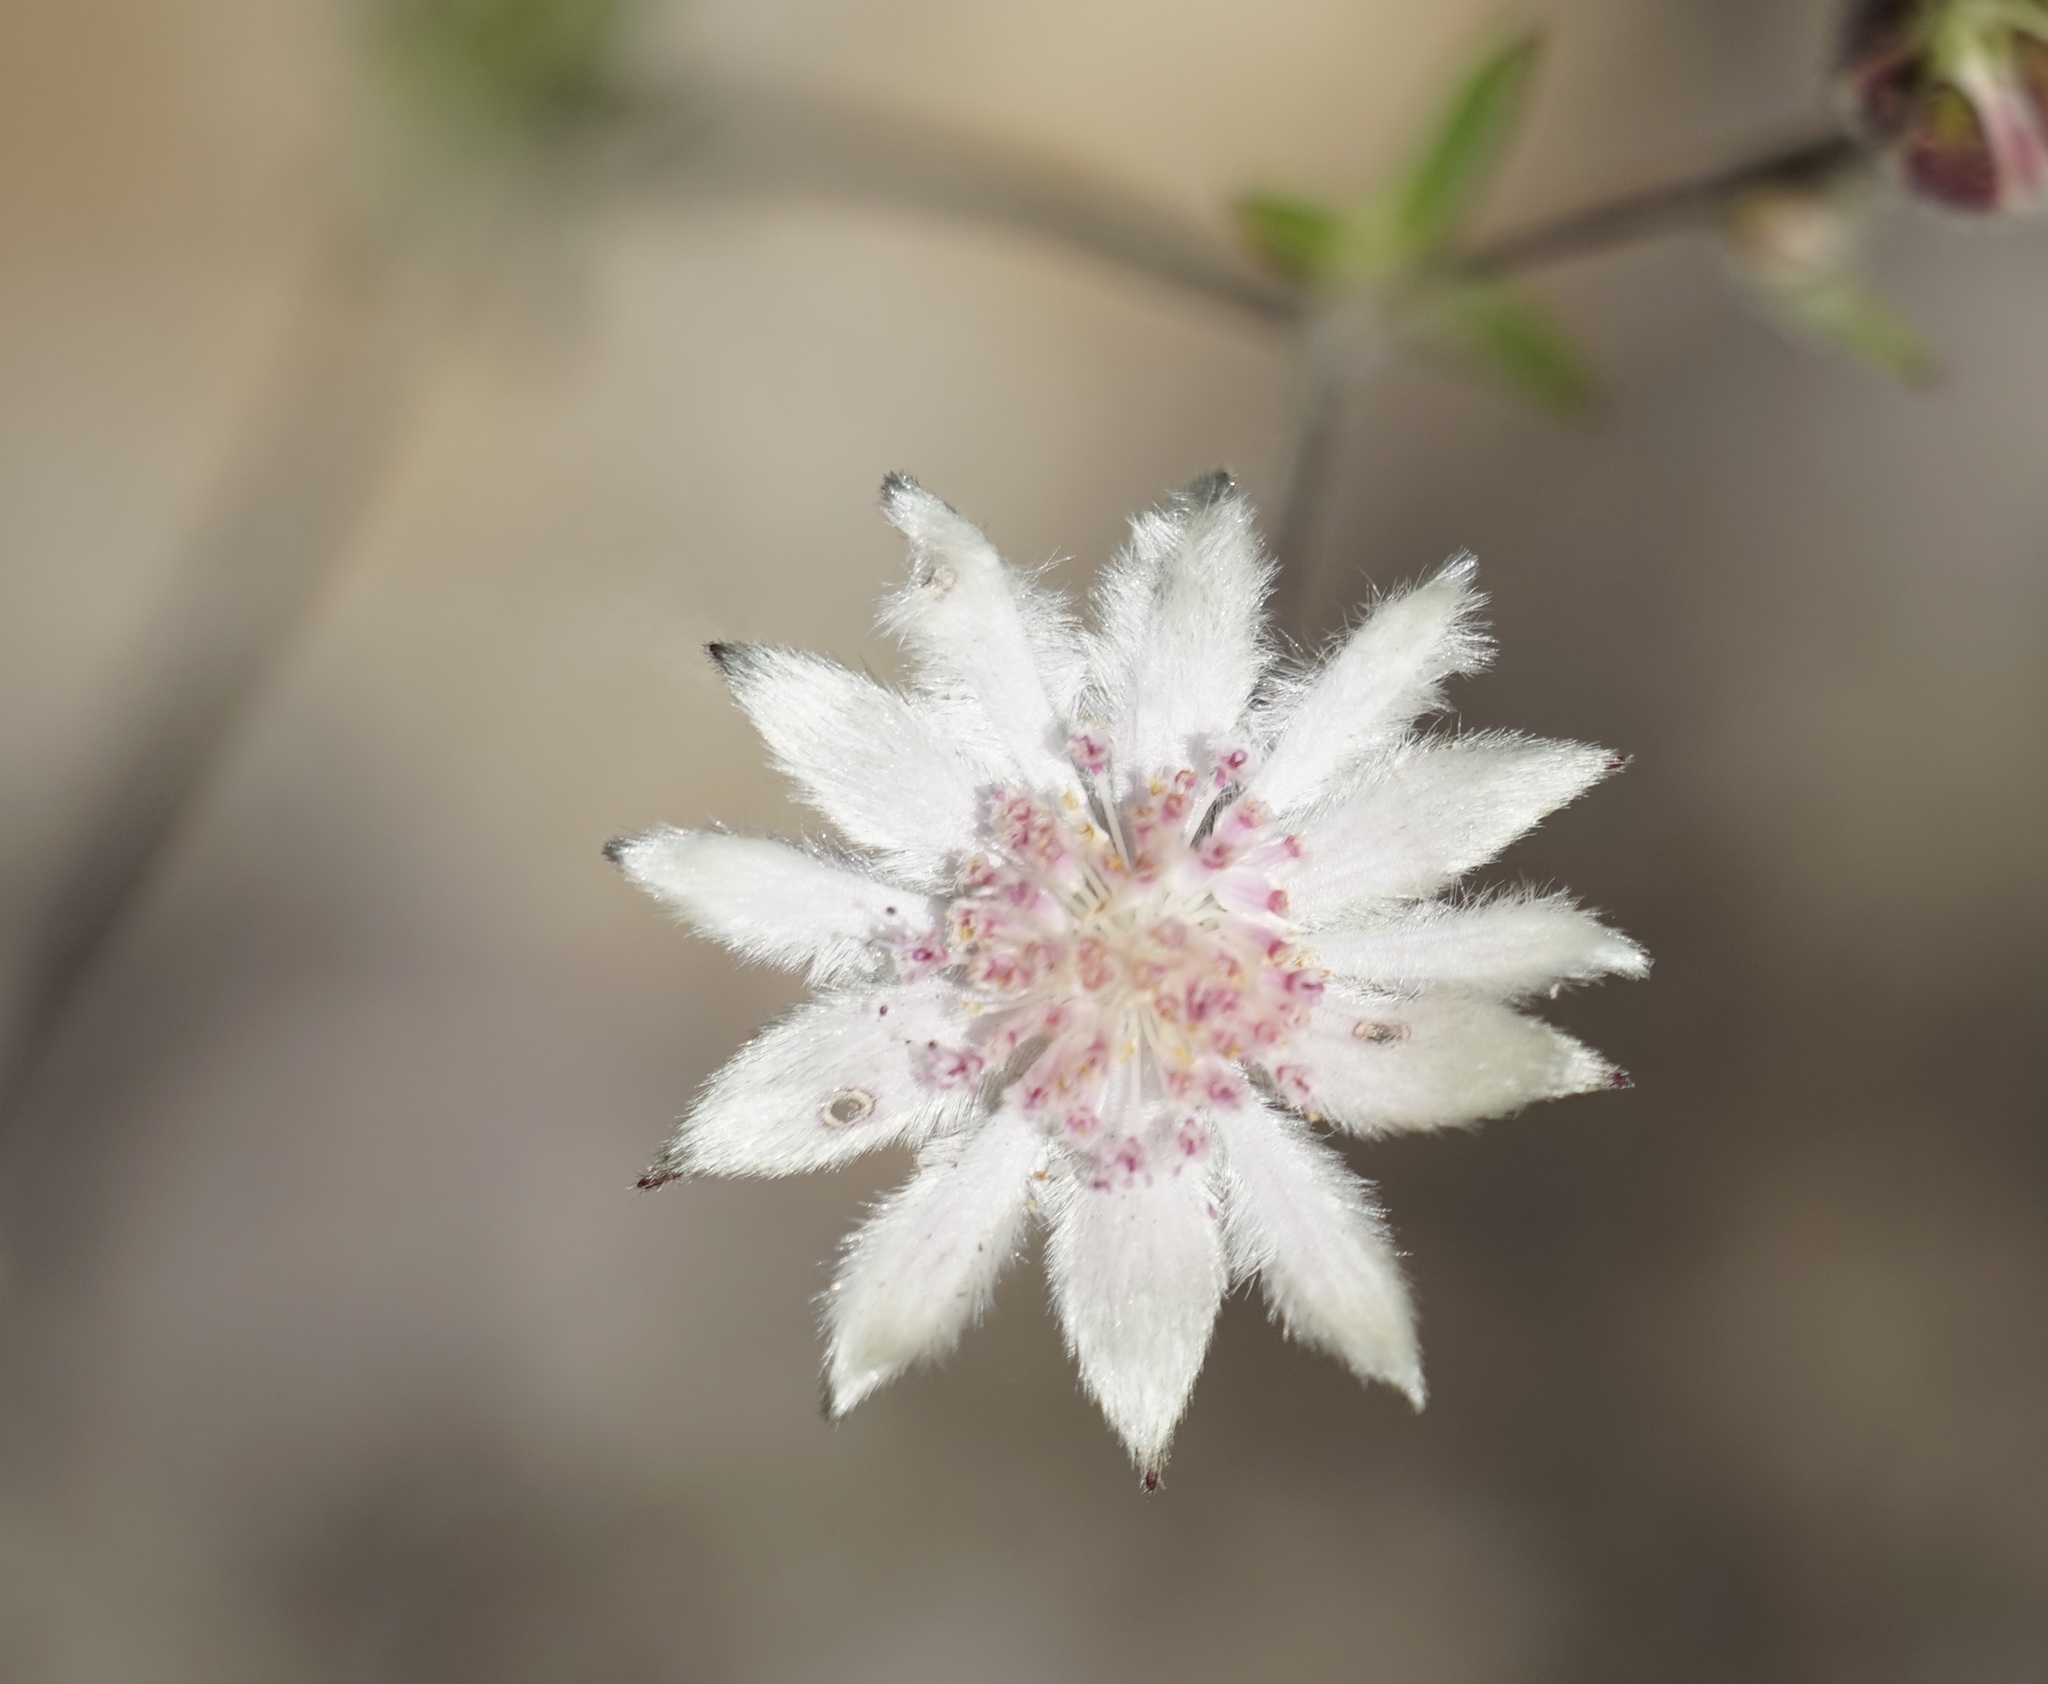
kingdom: Plantae
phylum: Tracheophyta
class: Magnoliopsida
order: Apiales
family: Apiaceae
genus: Actinotus
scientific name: Actinotus forsythii
